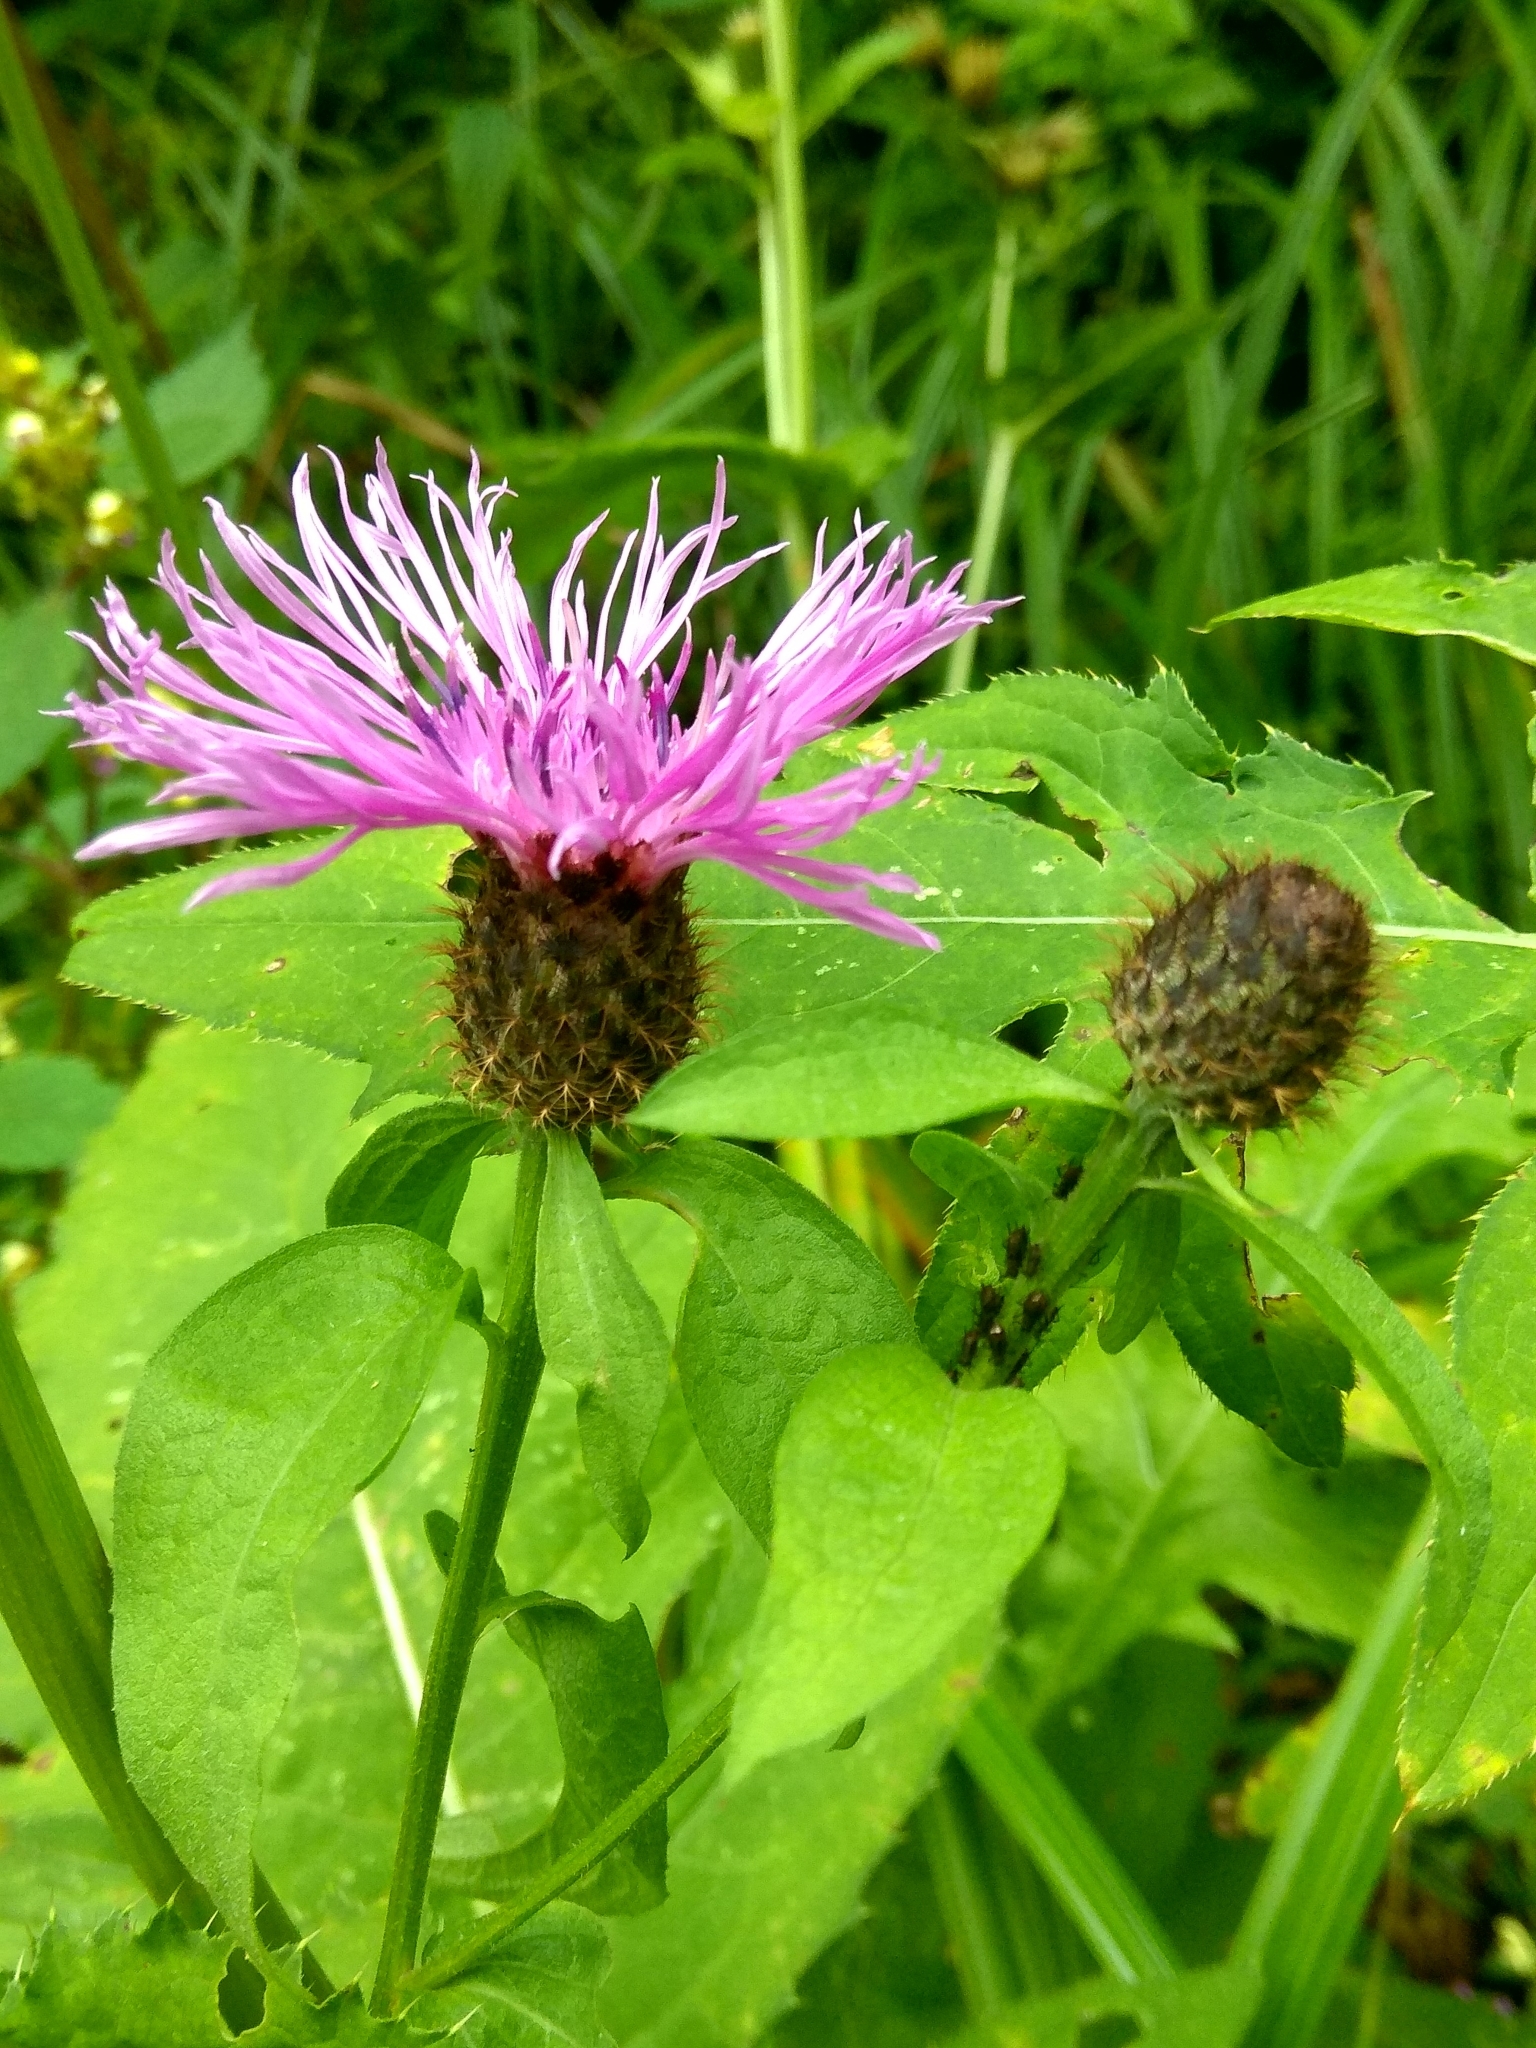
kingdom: Plantae
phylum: Tracheophyta
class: Magnoliopsida
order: Asterales
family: Asteraceae
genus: Centaurea
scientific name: Centaurea phrygia
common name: Wig knapweed
